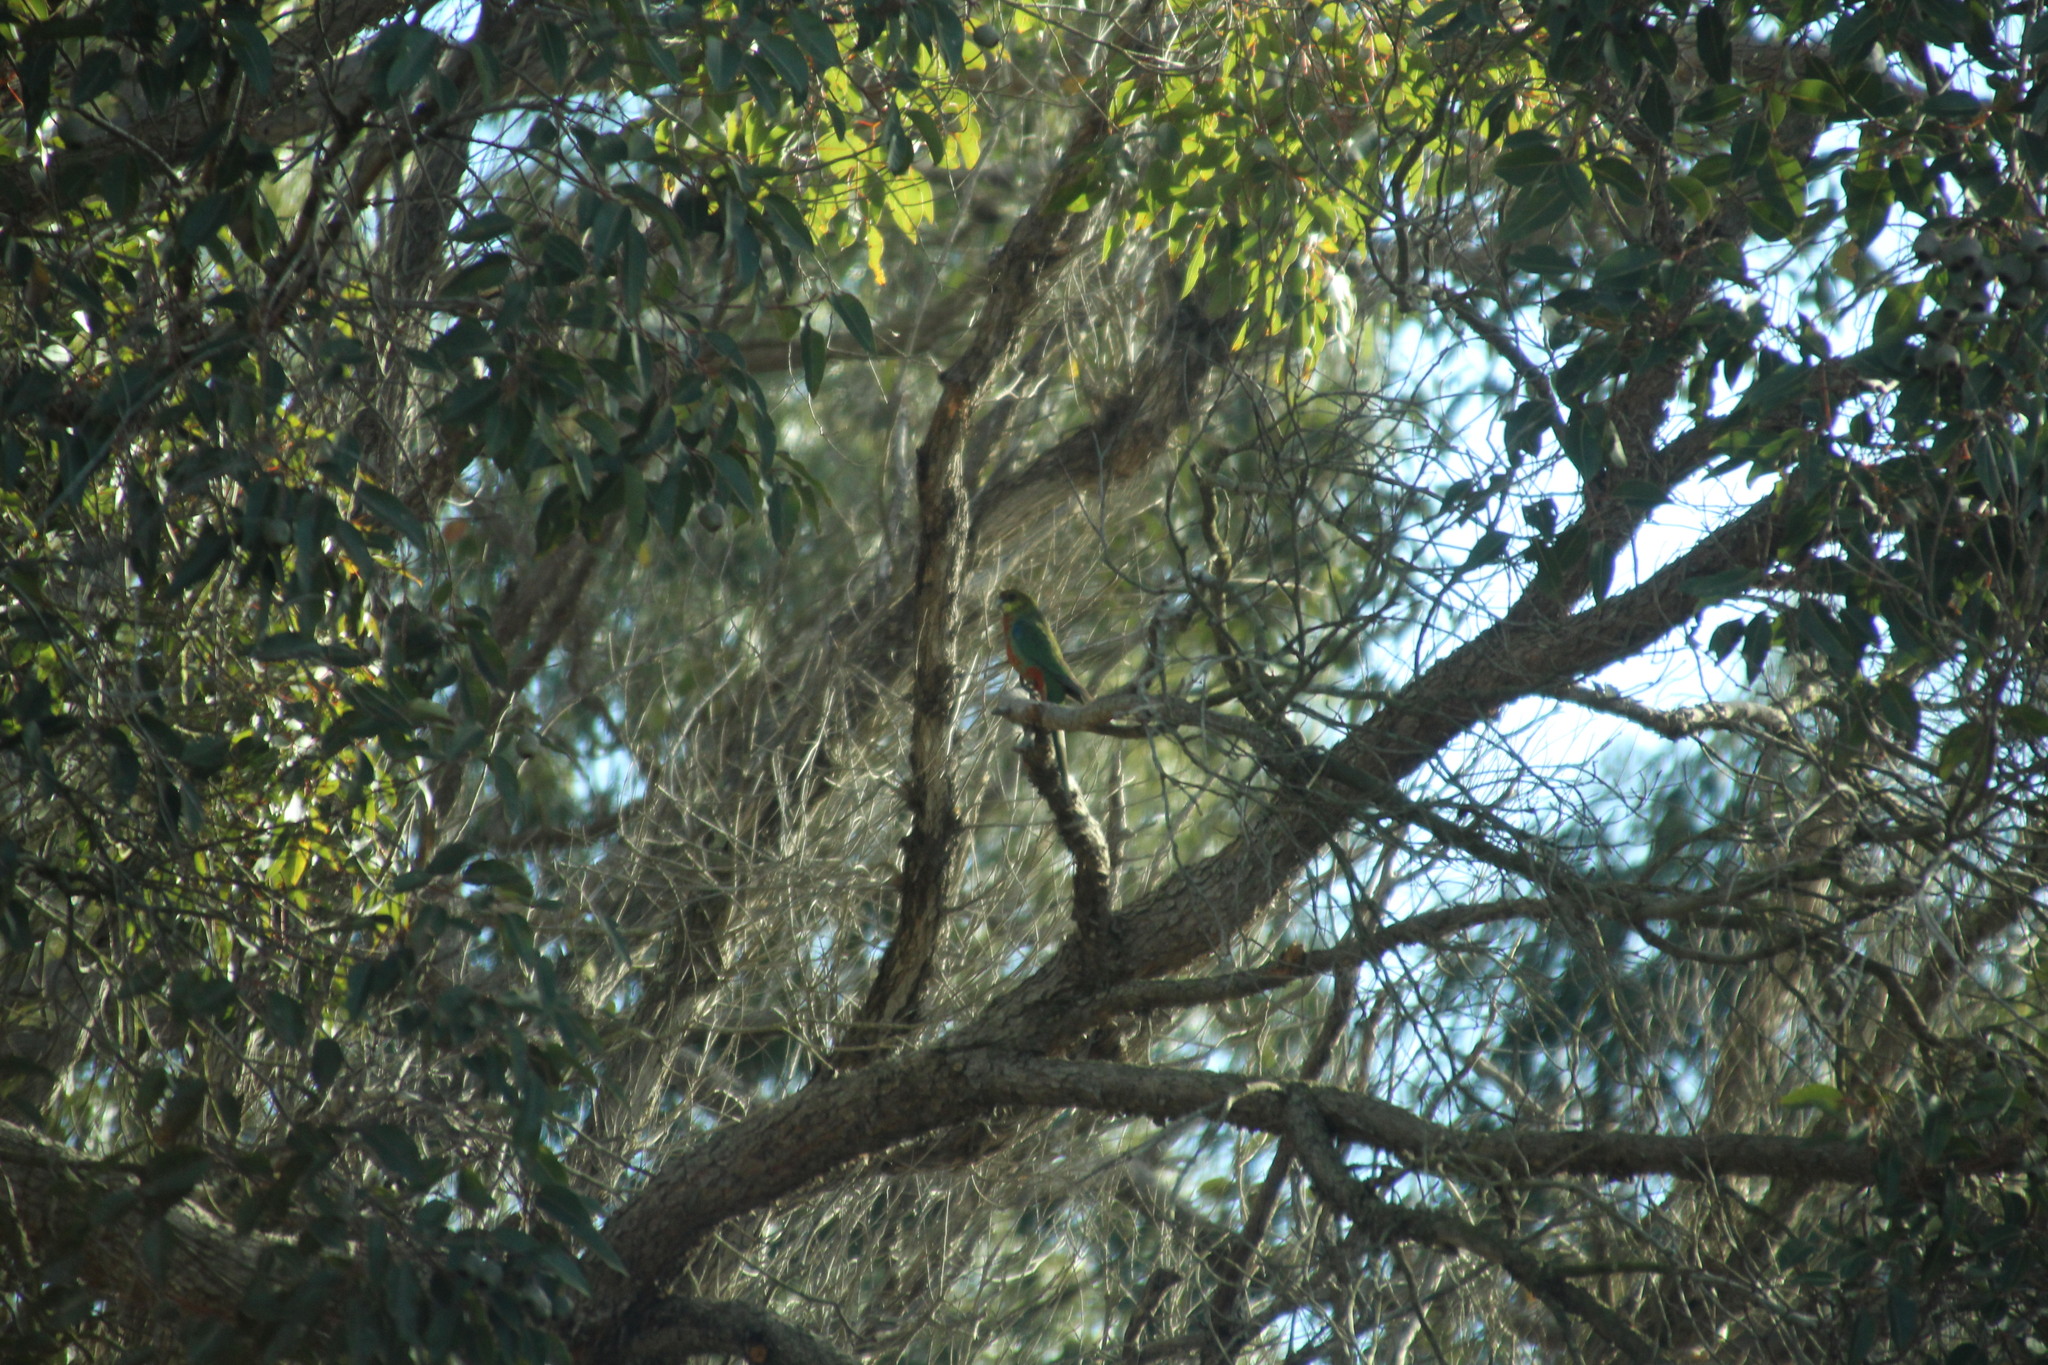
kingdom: Animalia
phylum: Chordata
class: Aves
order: Psittaciformes
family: Psittacidae
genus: Platycercus
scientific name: Platycercus icterotis
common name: Western rosella
